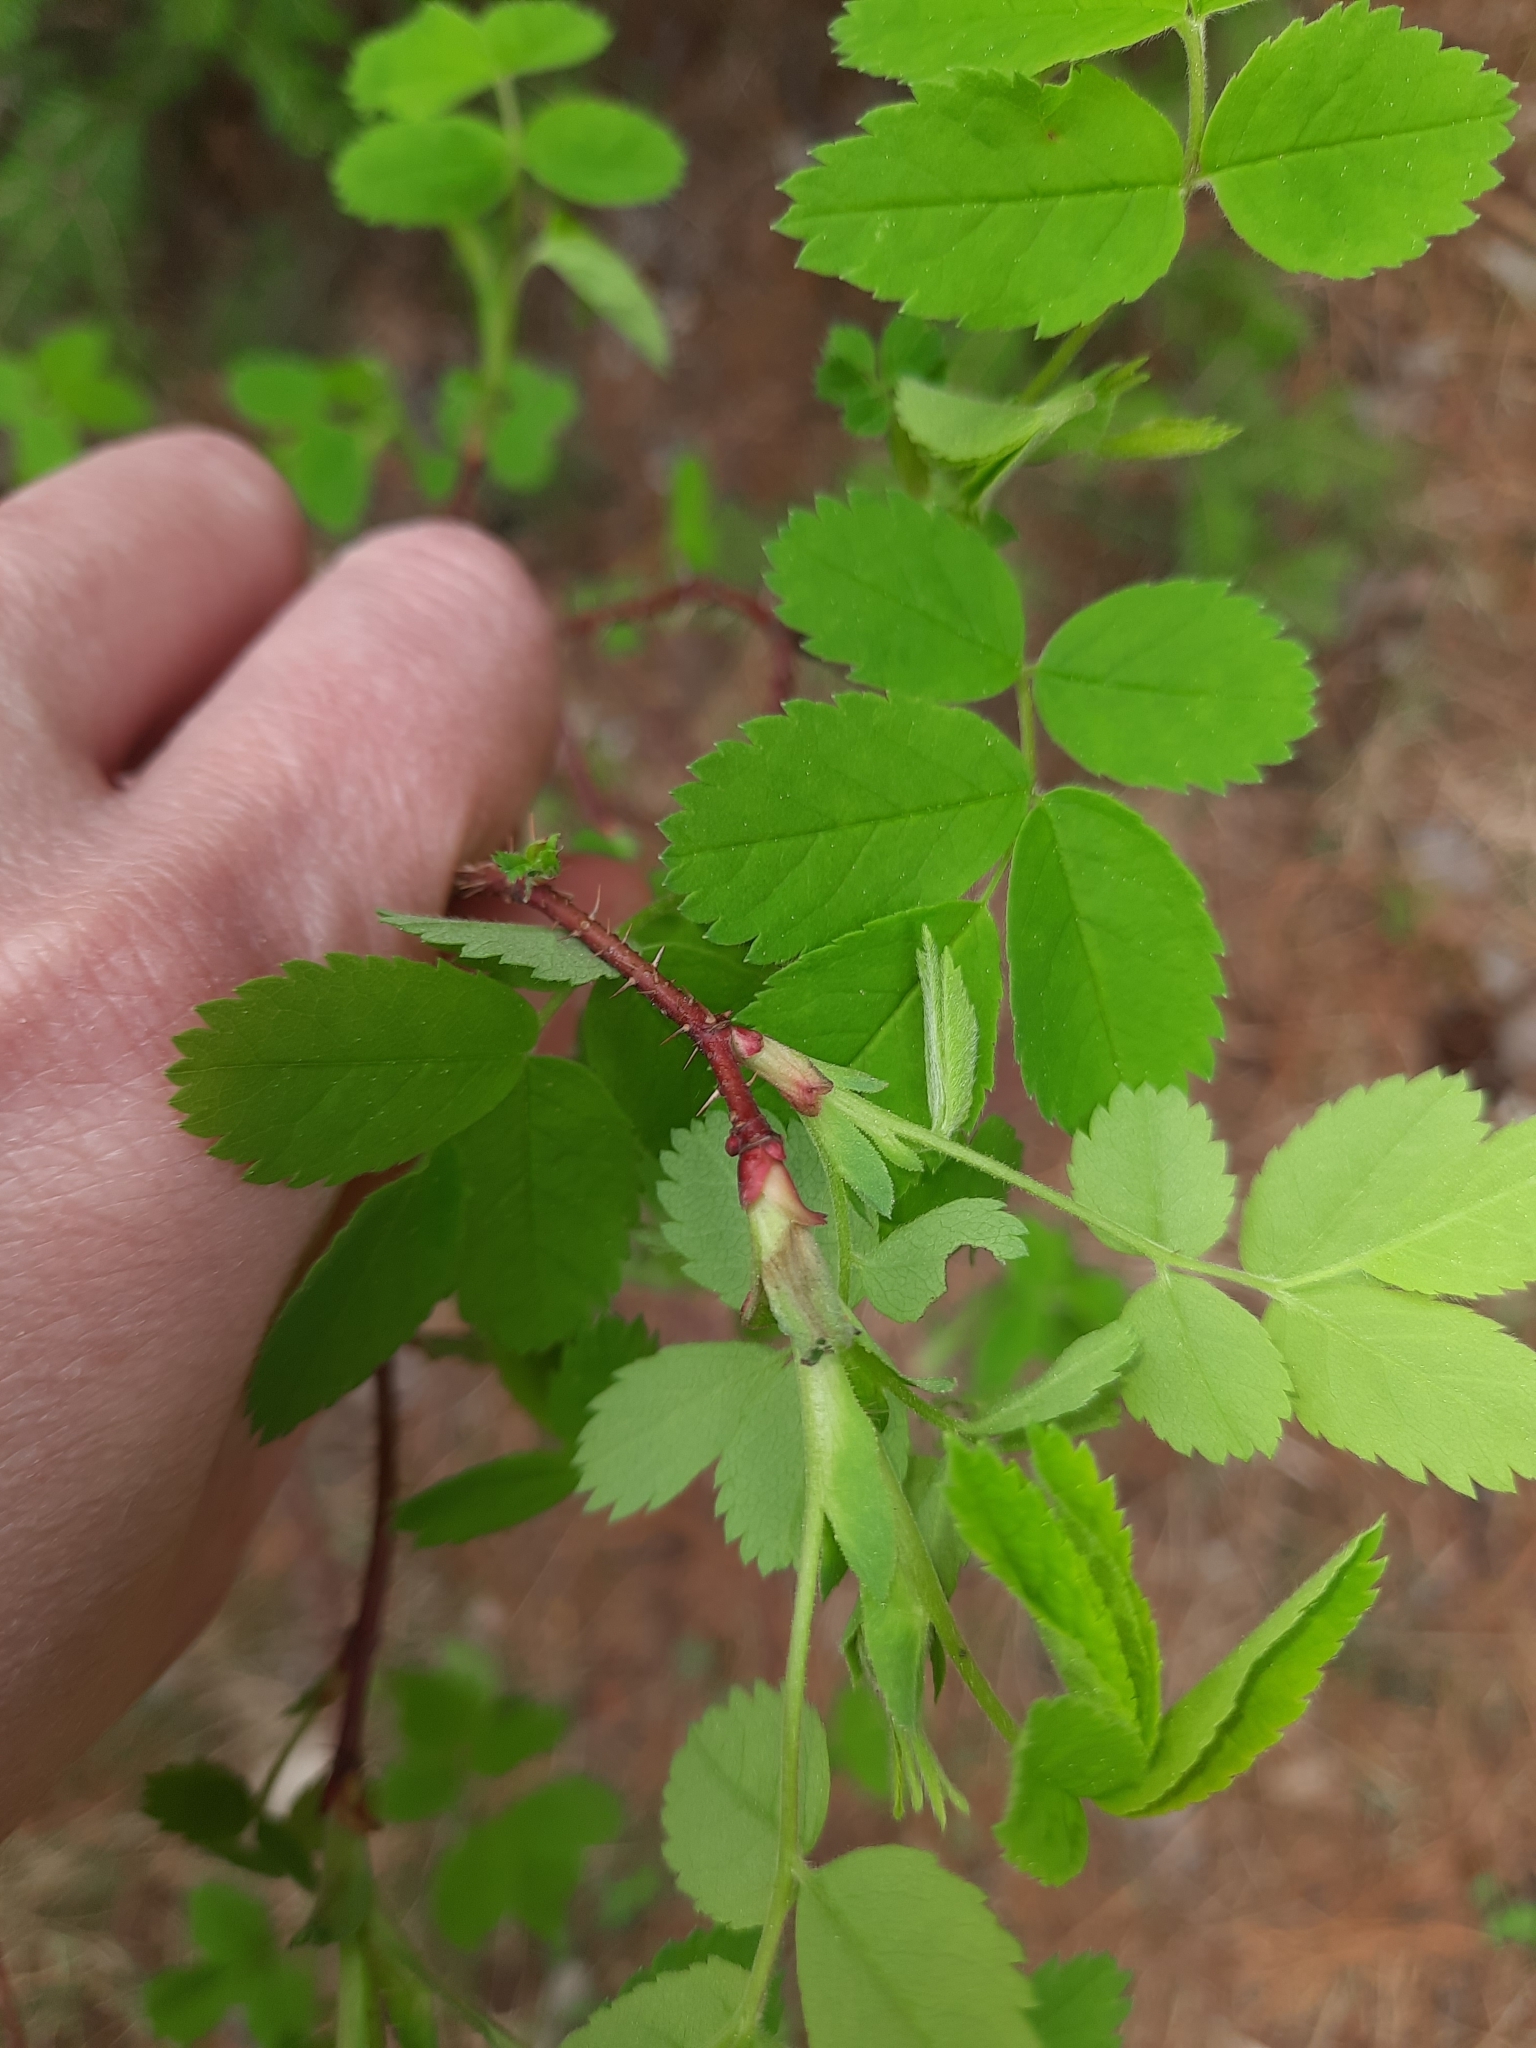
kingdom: Plantae
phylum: Tracheophyta
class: Magnoliopsida
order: Rosales
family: Rosaceae
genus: Rosa
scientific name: Rosa acicularis
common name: Prickly rose
